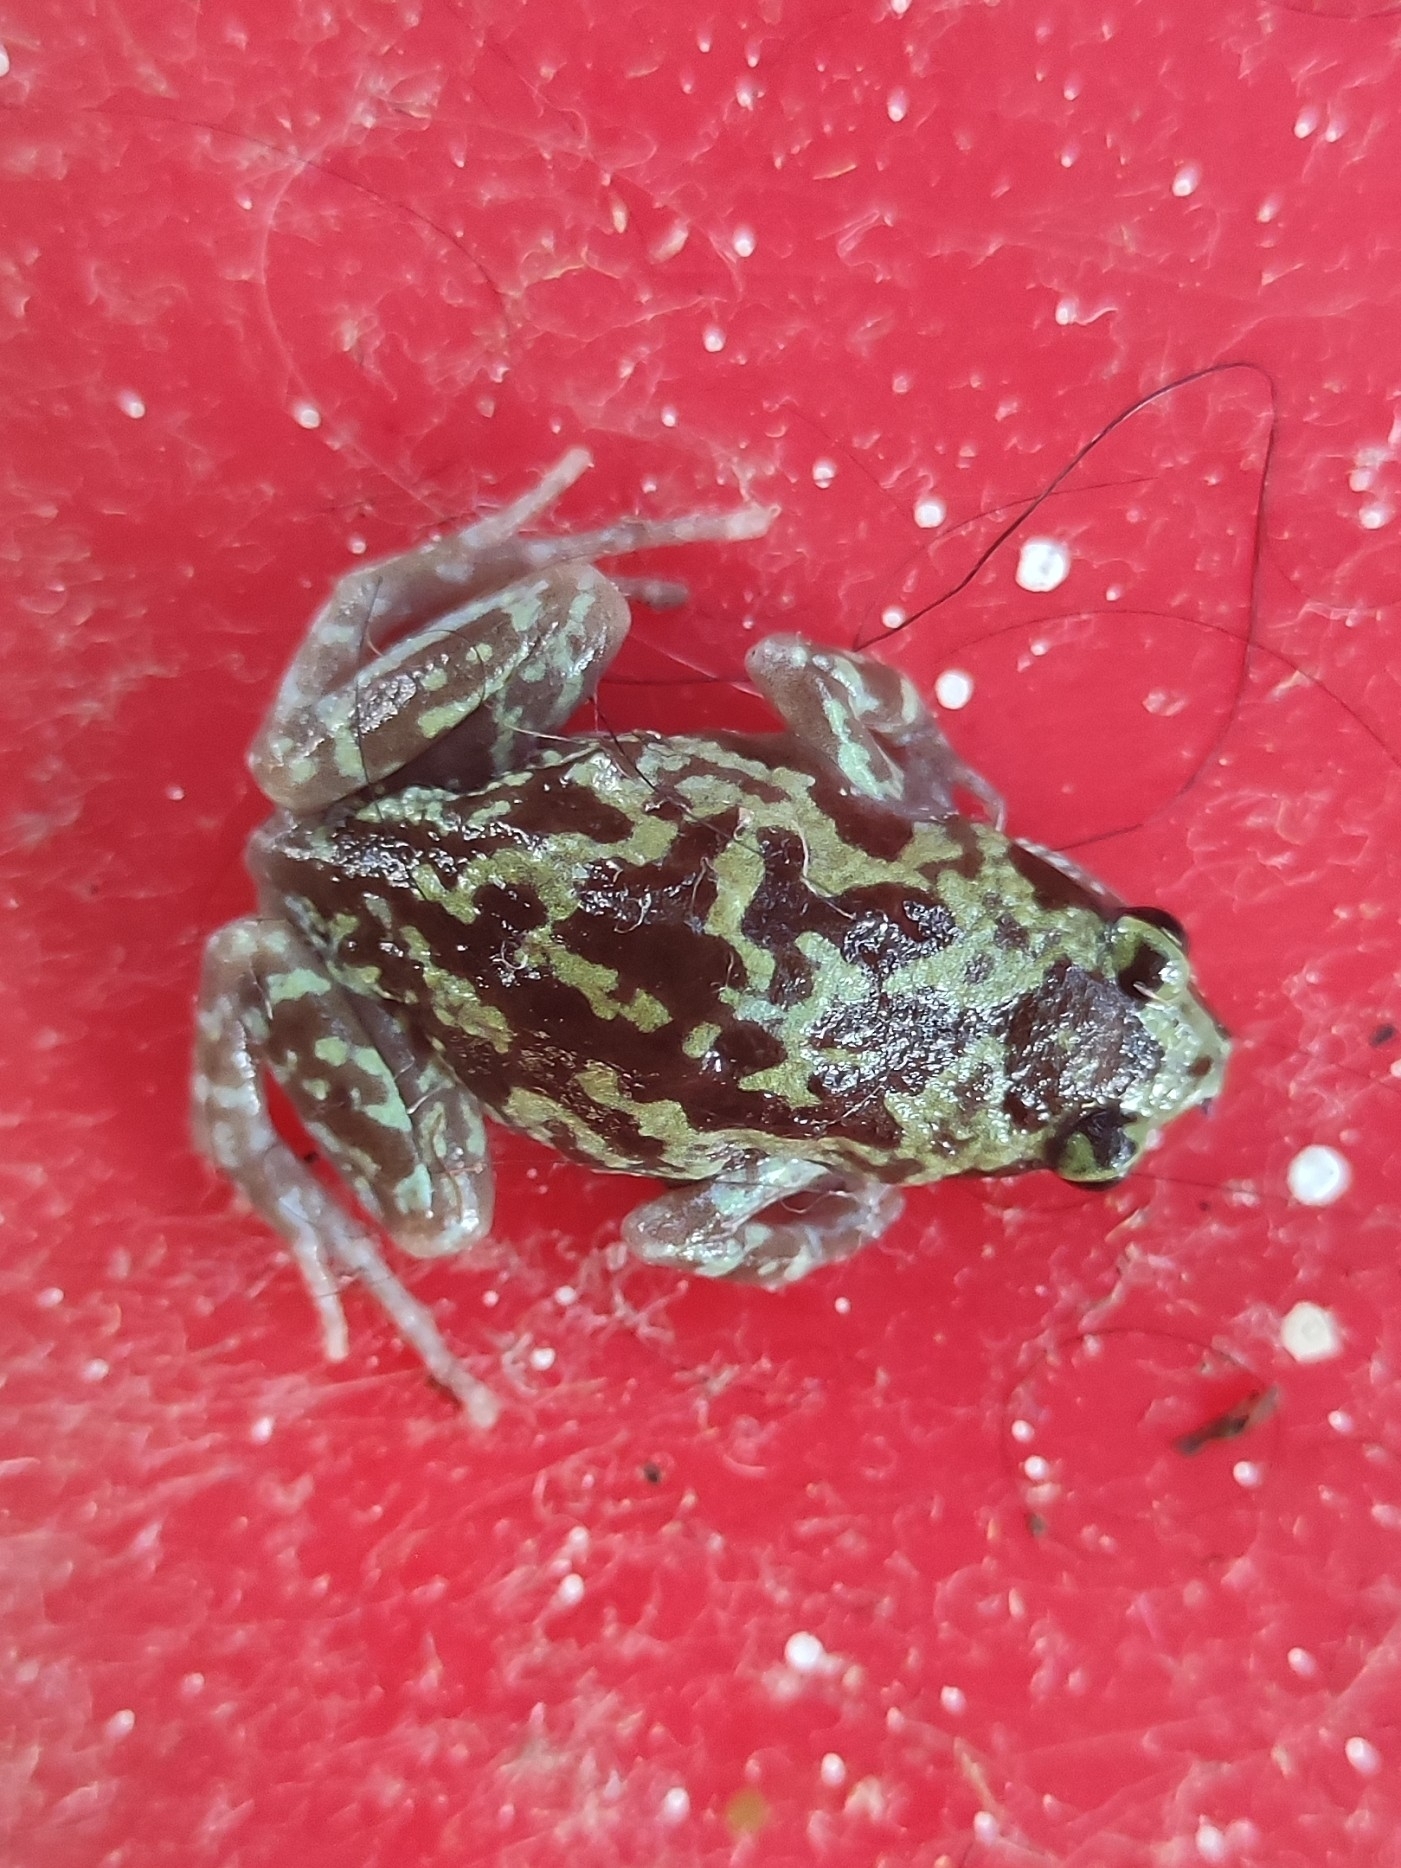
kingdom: Animalia
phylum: Chordata
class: Amphibia
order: Anura
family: Microhylidae
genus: Uperodon
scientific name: Uperodon variegatus
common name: Eluru dot frog
